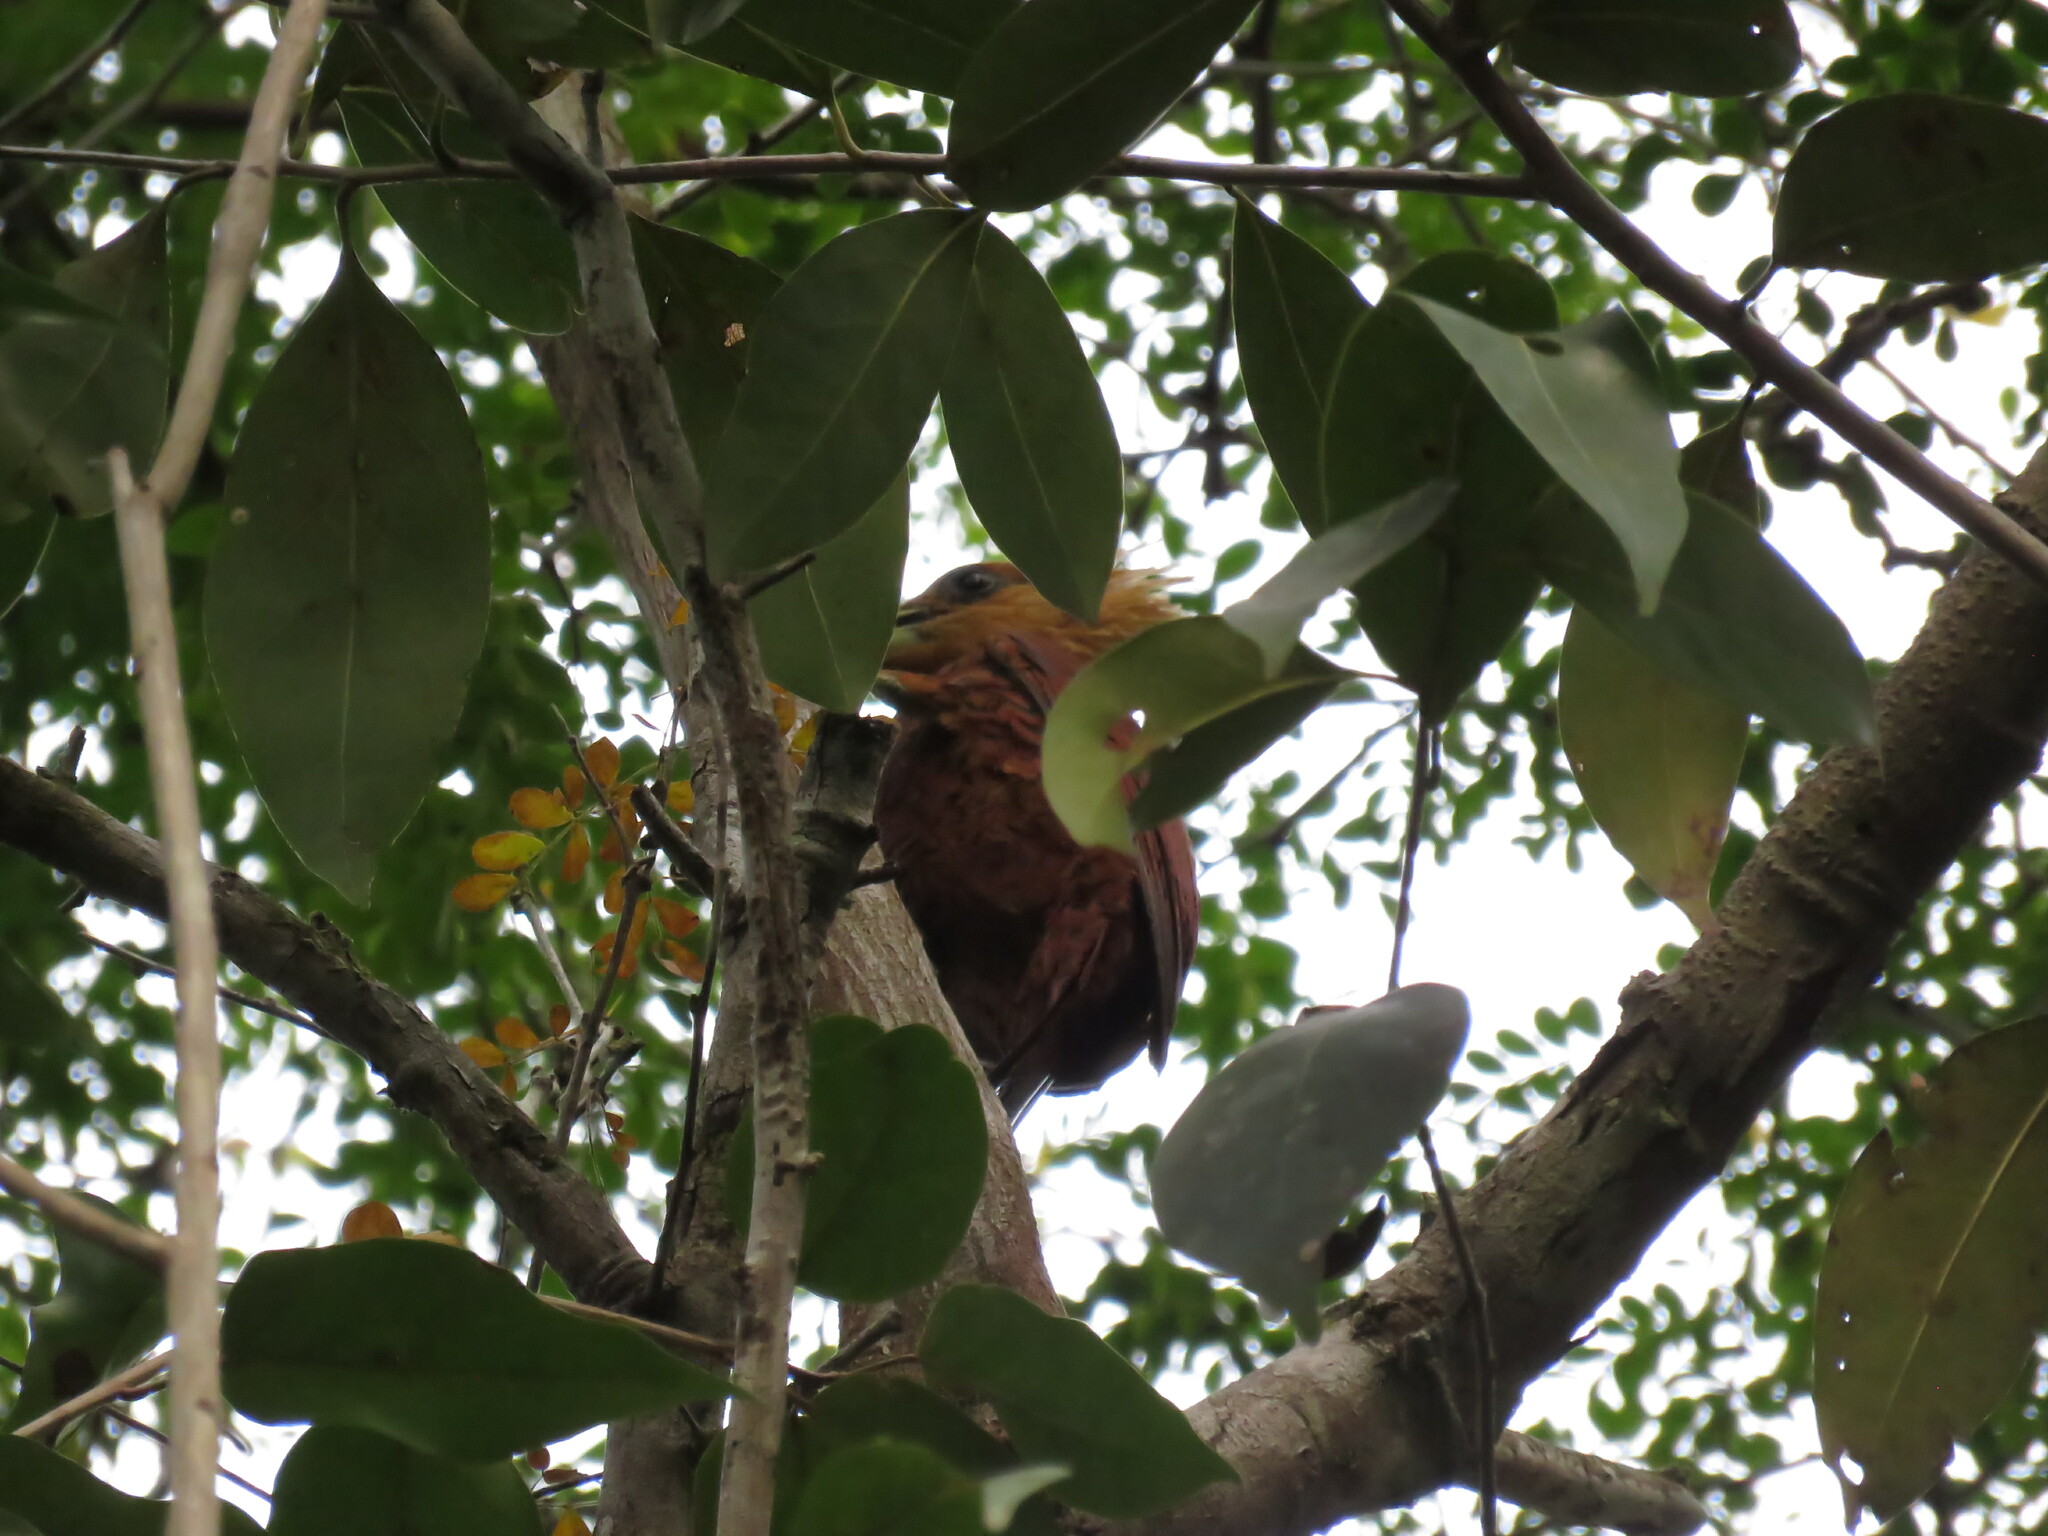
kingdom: Animalia
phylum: Chordata
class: Aves
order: Piciformes
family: Picidae
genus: Celeus
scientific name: Celeus castaneus
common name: Chestnut-colored woodpecker
